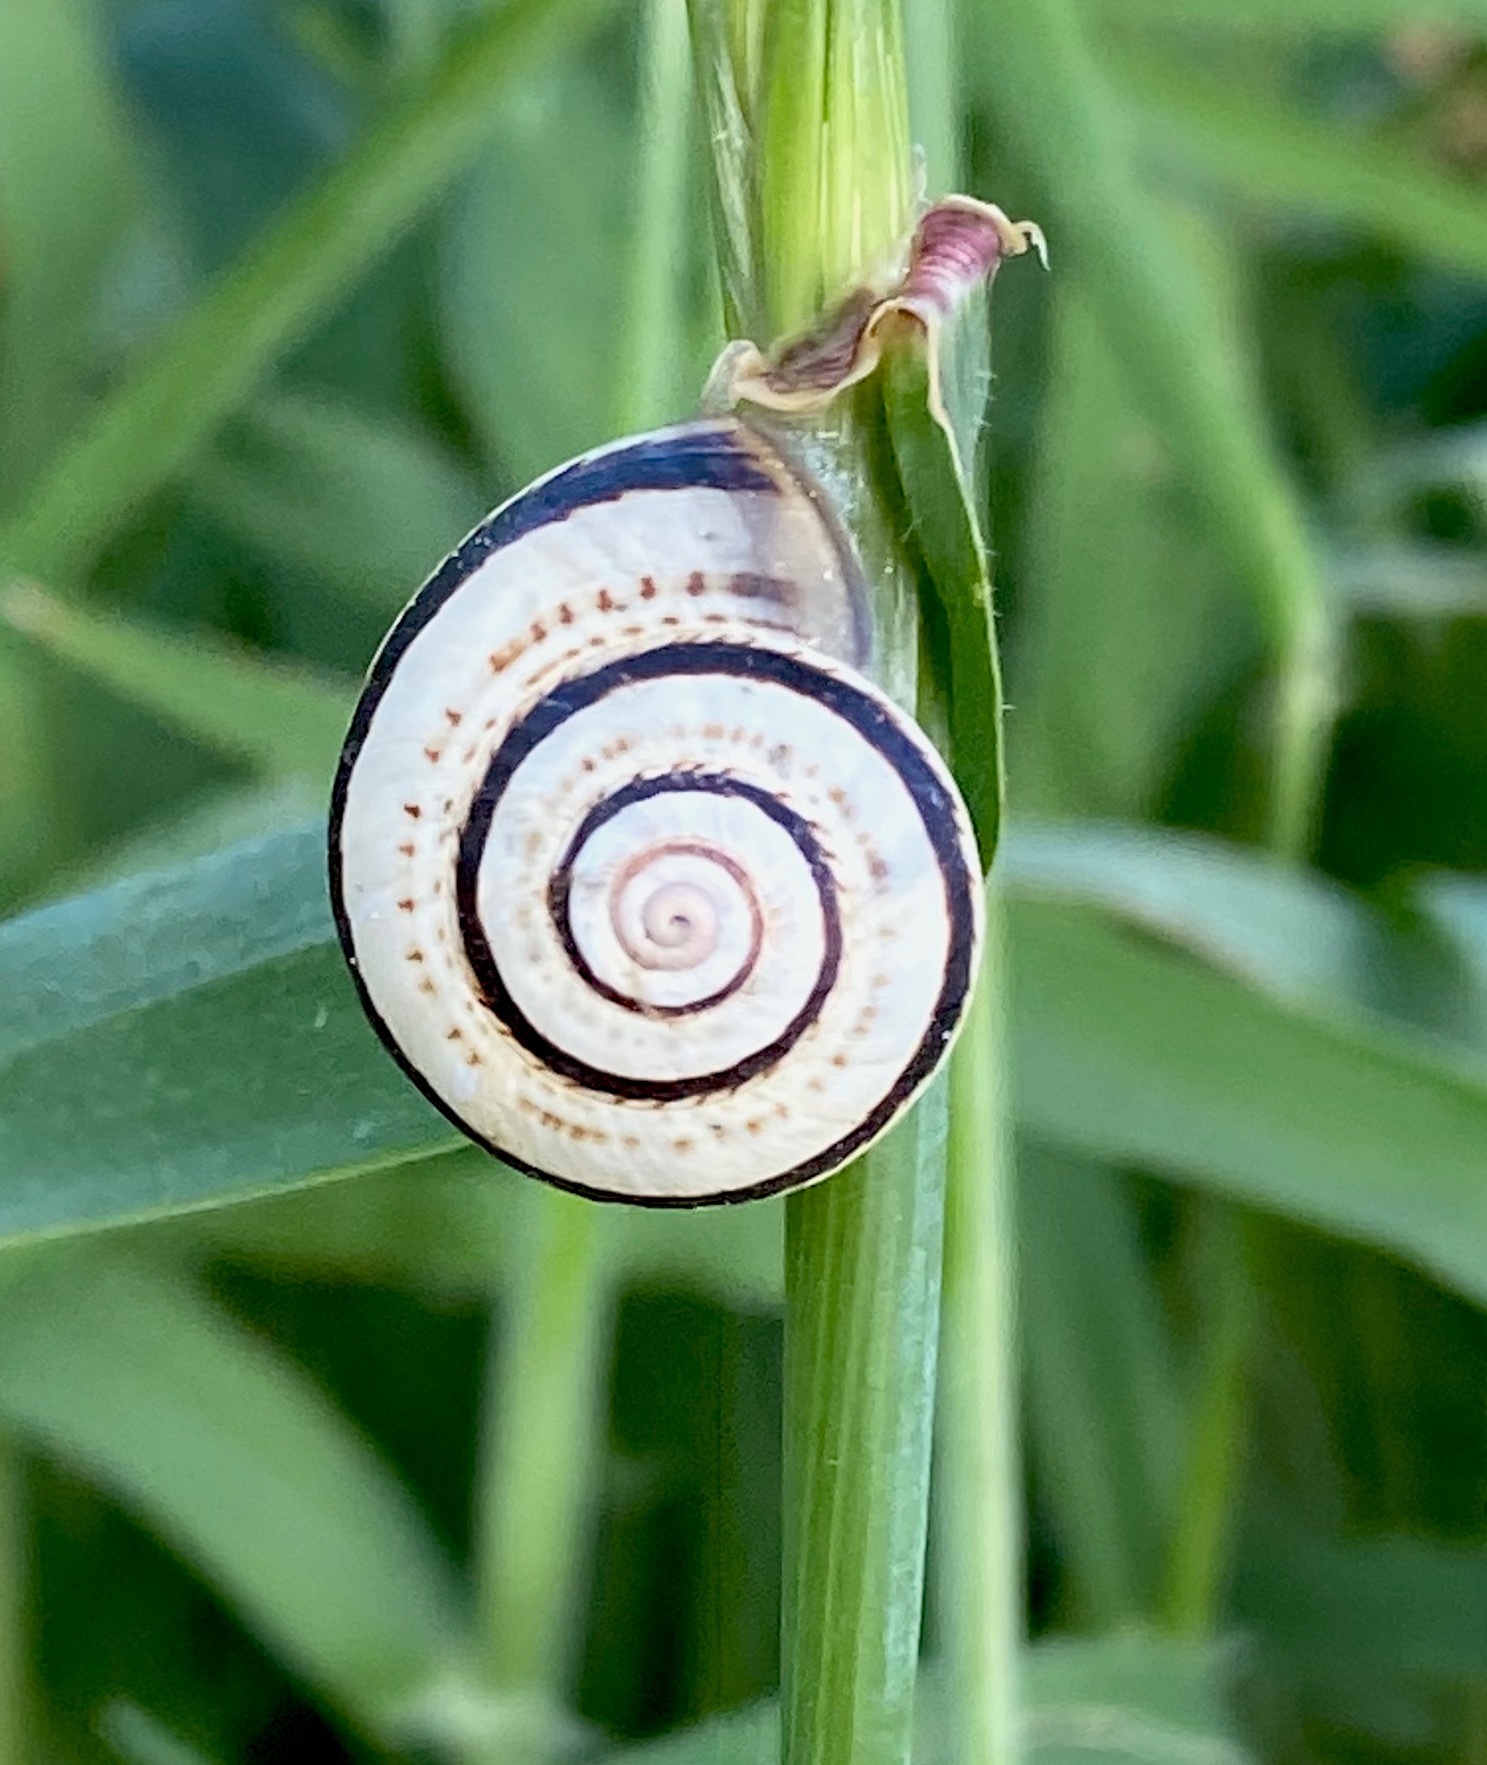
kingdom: Animalia
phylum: Mollusca
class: Gastropoda
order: Stylommatophora
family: Helicidae
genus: Theba
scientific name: Theba pisana
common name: White snail
